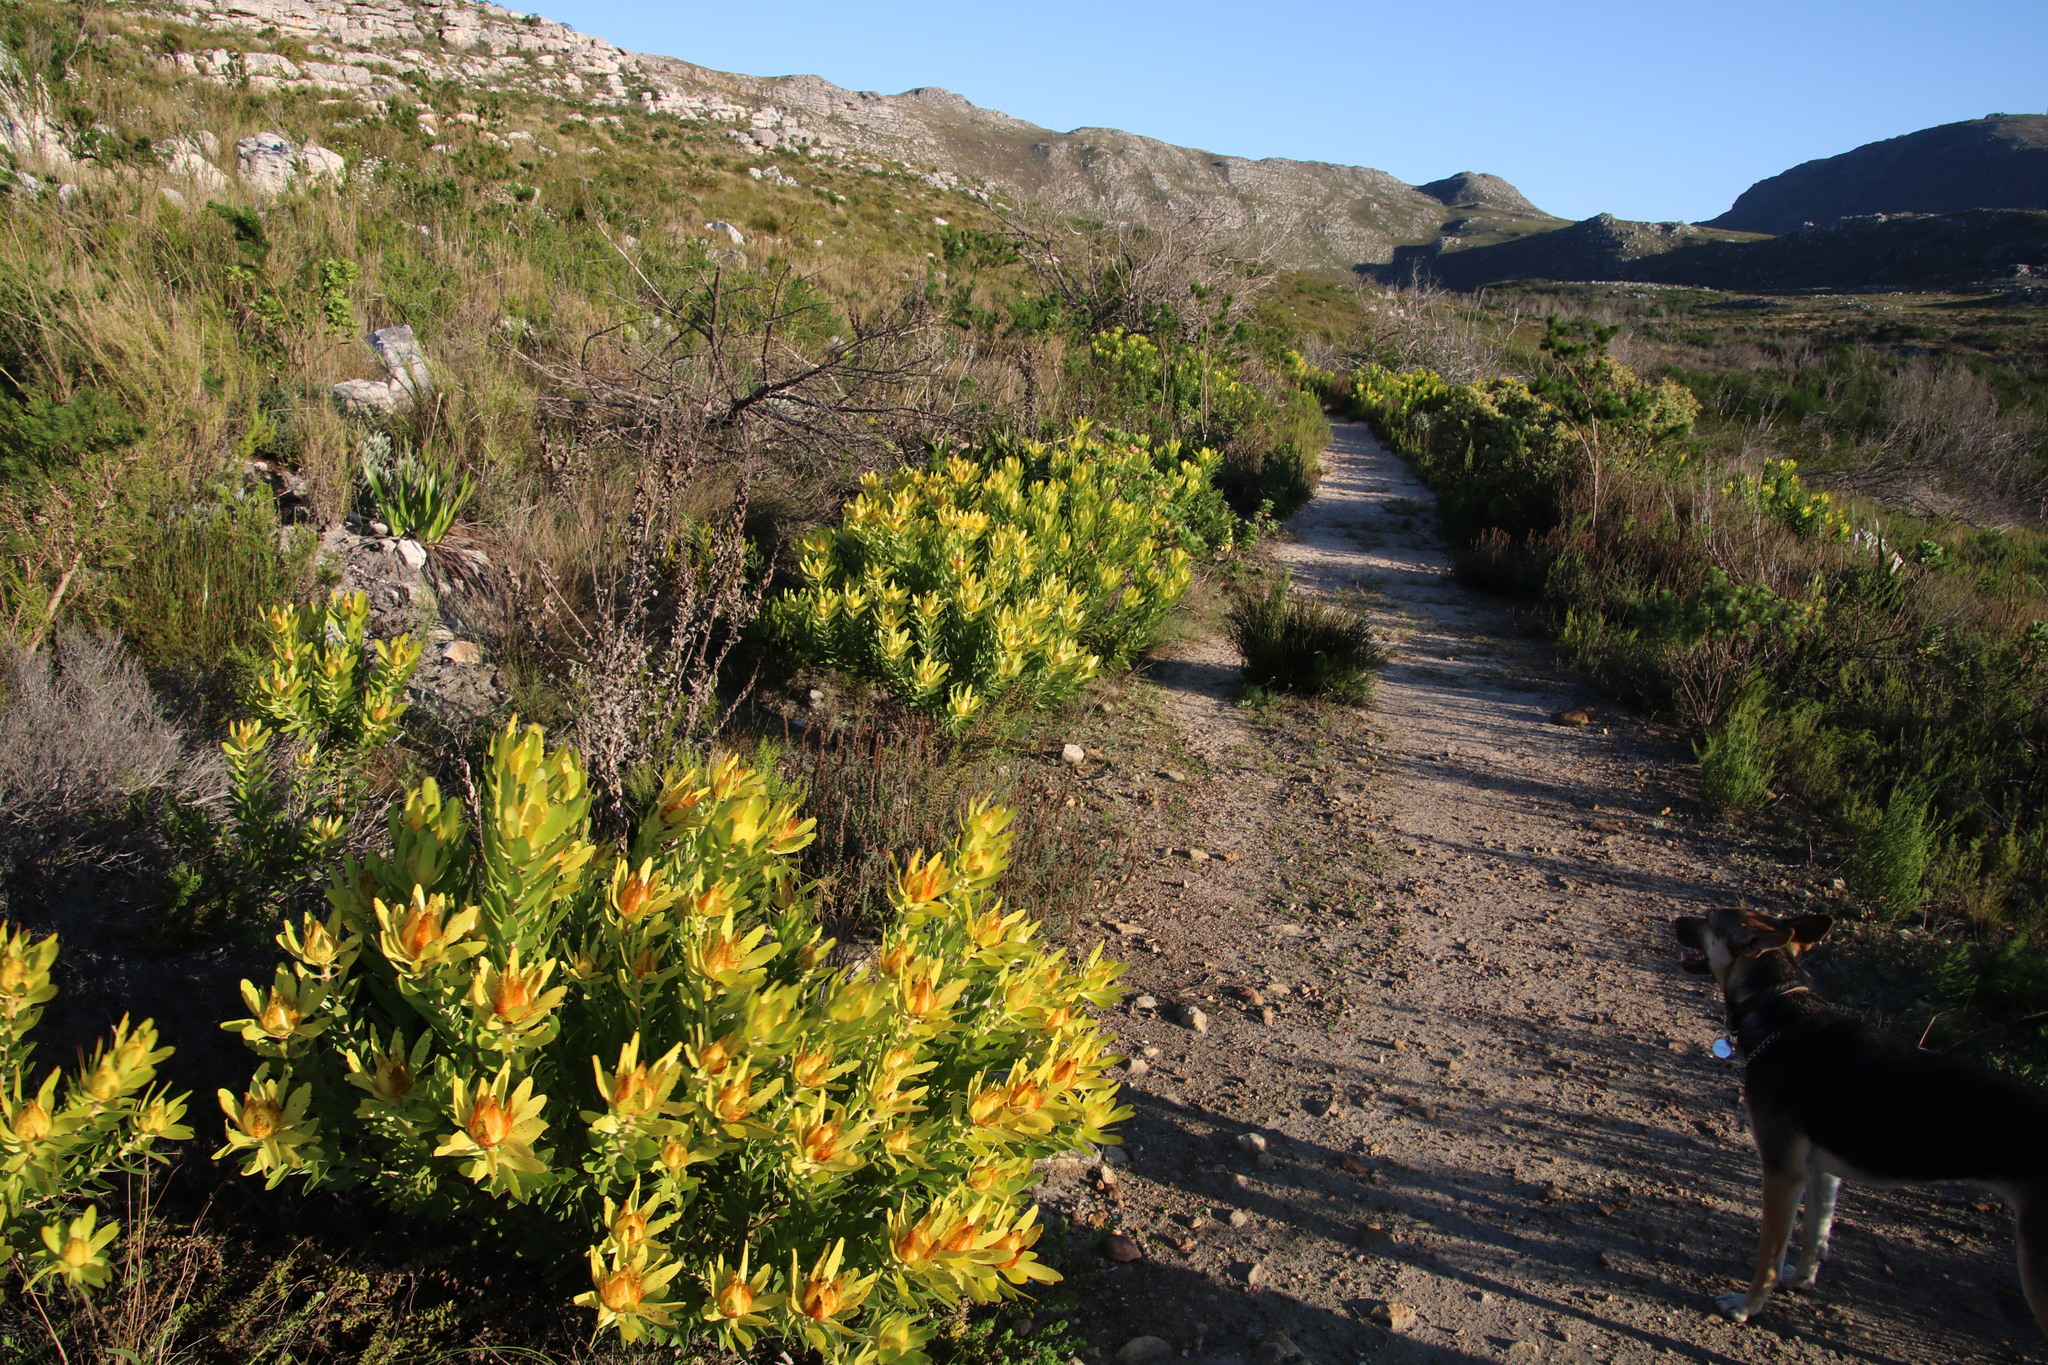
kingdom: Plantae
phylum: Tracheophyta
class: Magnoliopsida
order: Proteales
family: Proteaceae
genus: Leucadendron
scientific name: Leucadendron laureolum
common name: Golden sunshinebush
